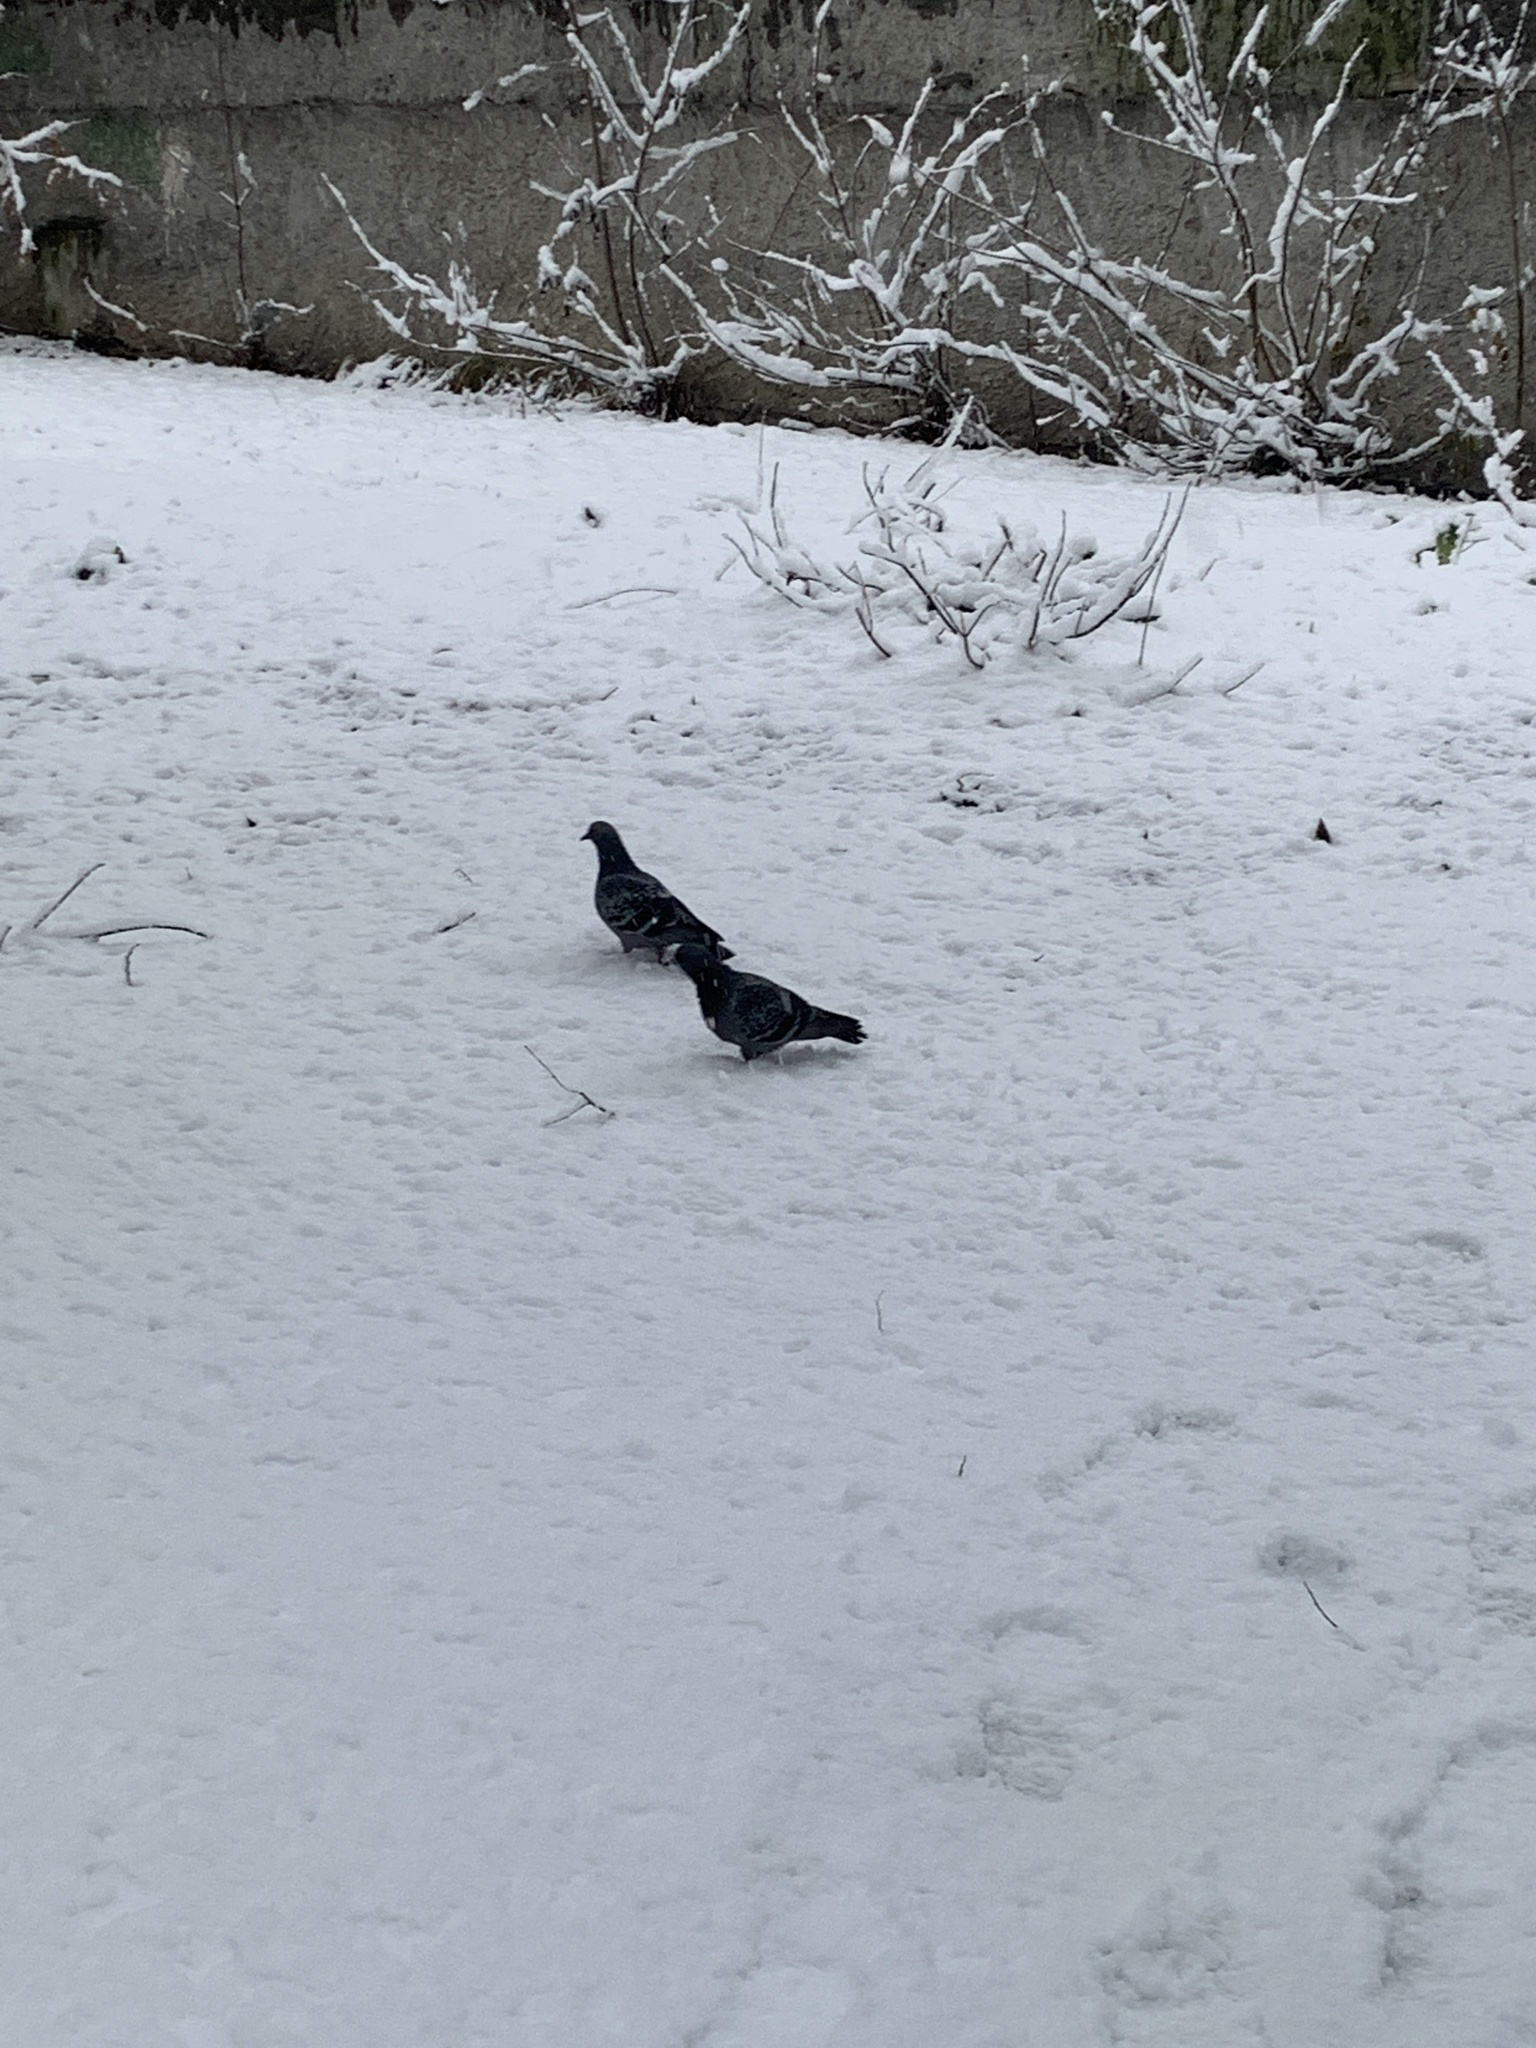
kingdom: Animalia
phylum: Chordata
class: Aves
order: Columbiformes
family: Columbidae
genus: Columba
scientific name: Columba livia
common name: Rock pigeon
